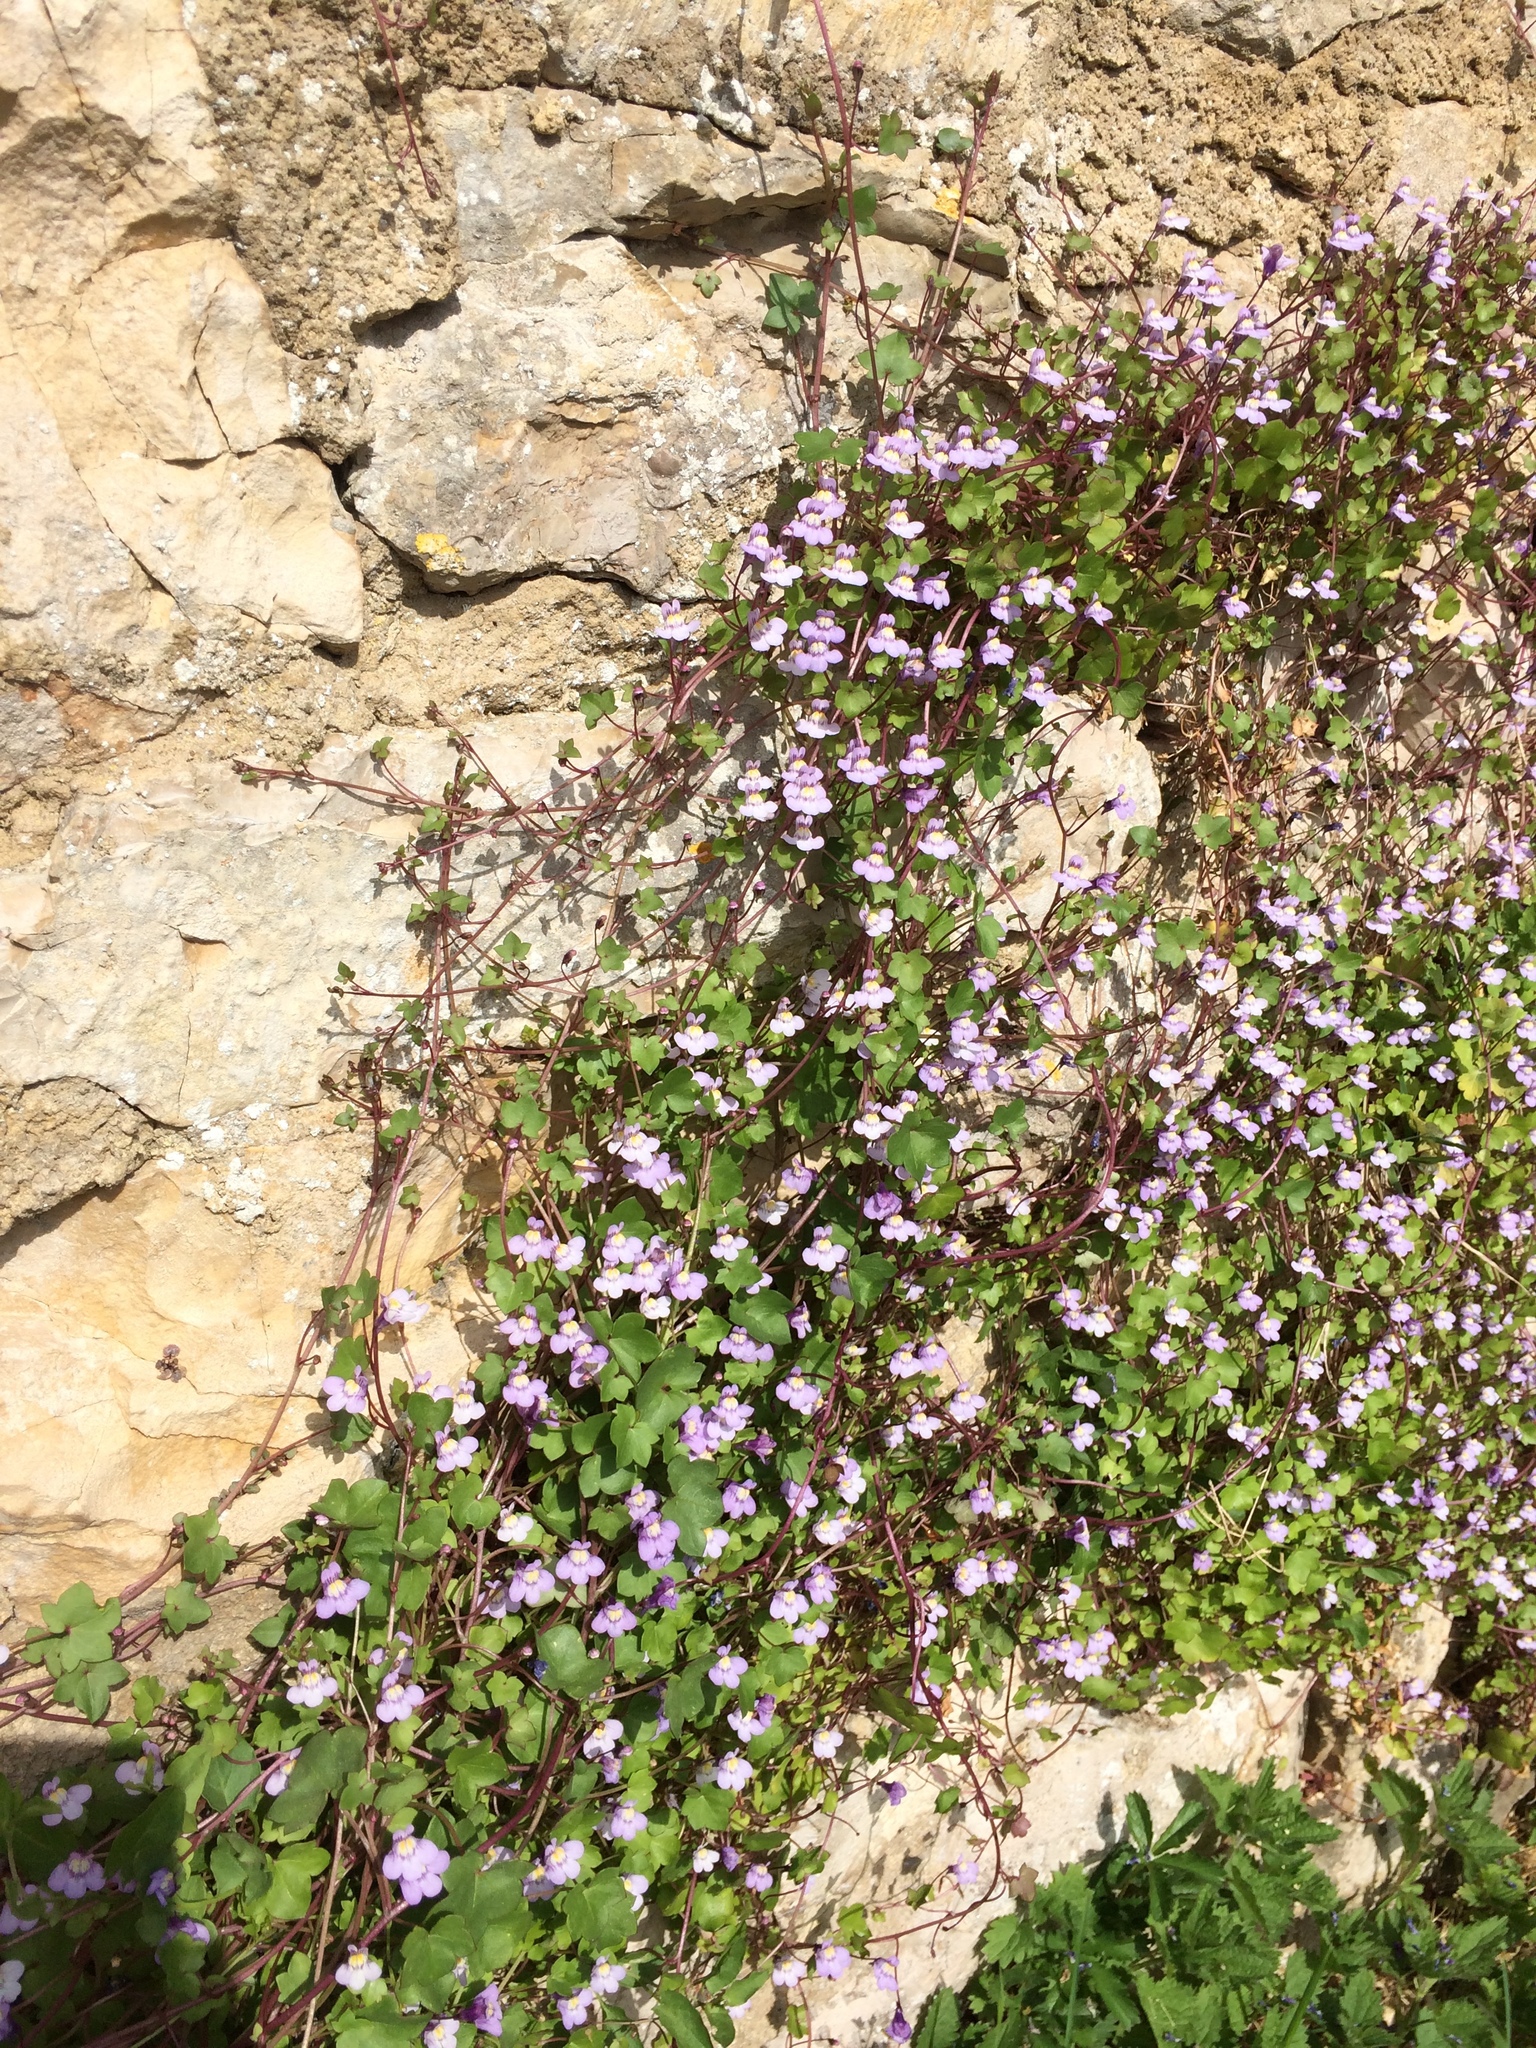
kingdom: Plantae
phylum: Tracheophyta
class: Magnoliopsida
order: Lamiales
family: Plantaginaceae
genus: Cymbalaria
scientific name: Cymbalaria muralis
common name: Ivy-leaved toadflax
